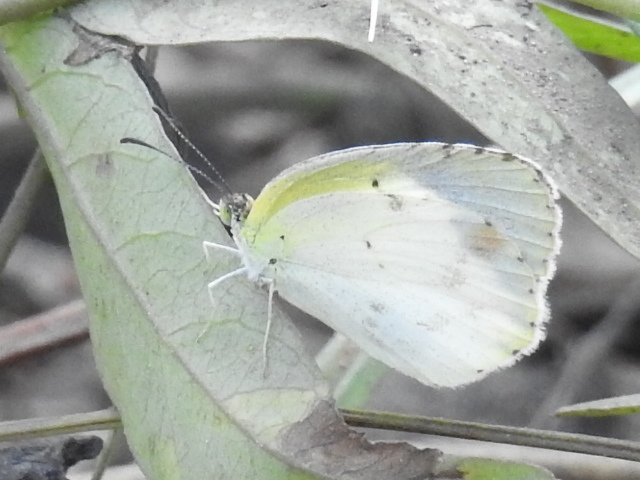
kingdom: Animalia
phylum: Arthropoda
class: Insecta
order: Lepidoptera
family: Pieridae
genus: Pyrisitia
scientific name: Pyrisitia lisa
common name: Little yellow
